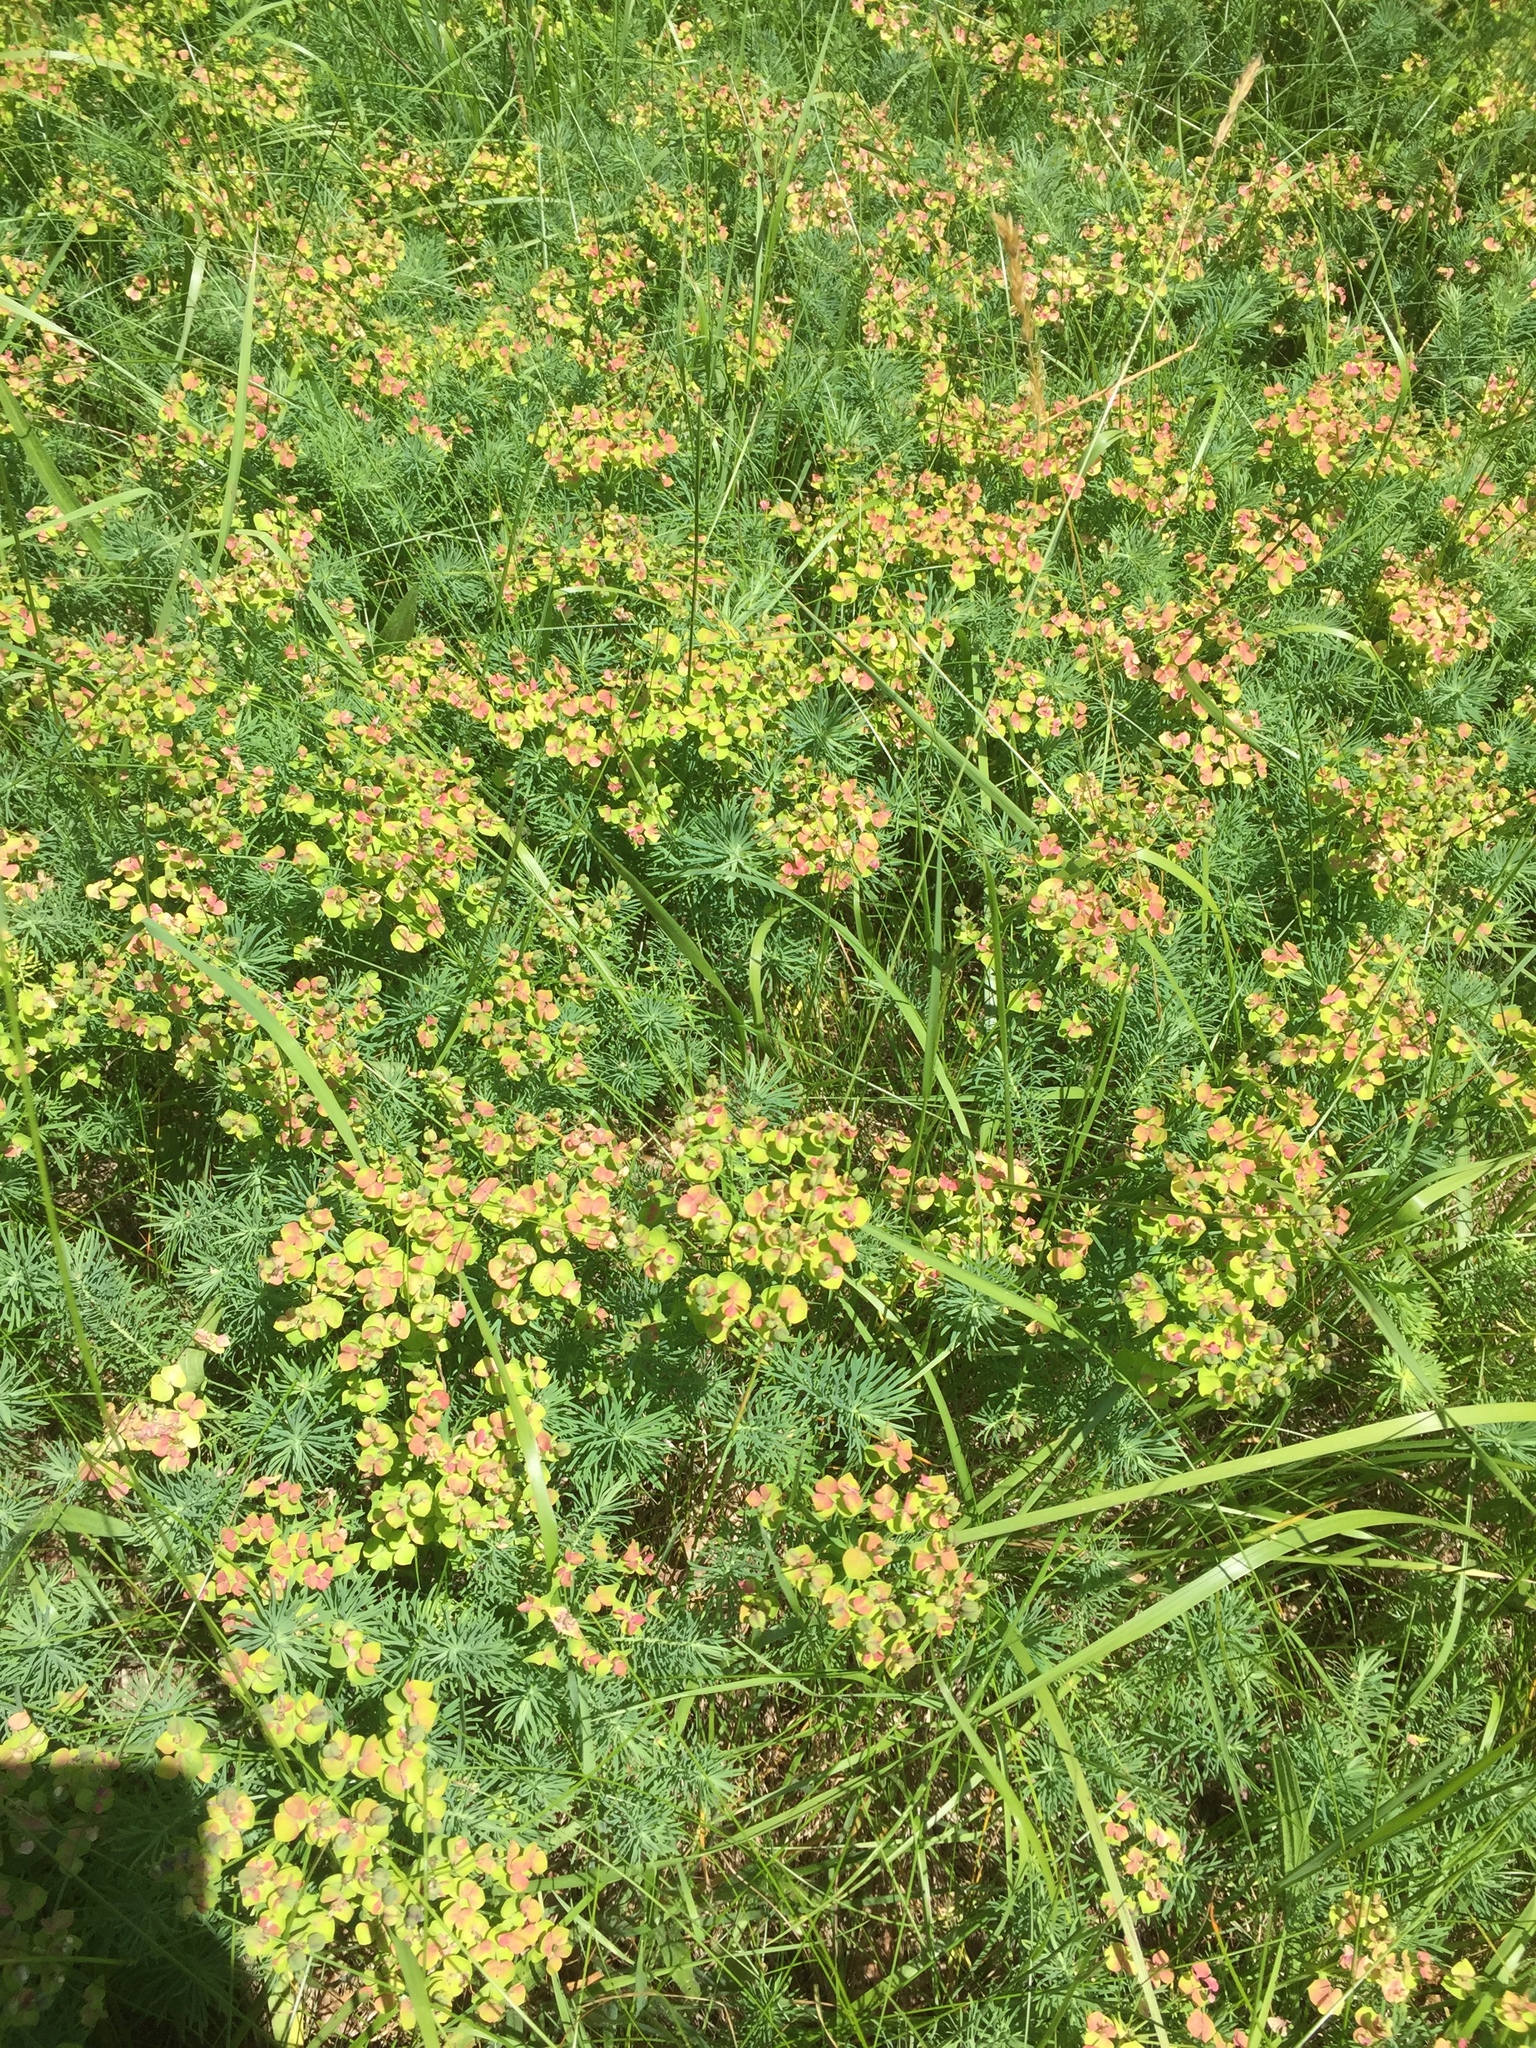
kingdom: Plantae
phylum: Tracheophyta
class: Magnoliopsida
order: Malpighiales
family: Euphorbiaceae
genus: Euphorbia
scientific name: Euphorbia cyparissias
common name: Cypress spurge
